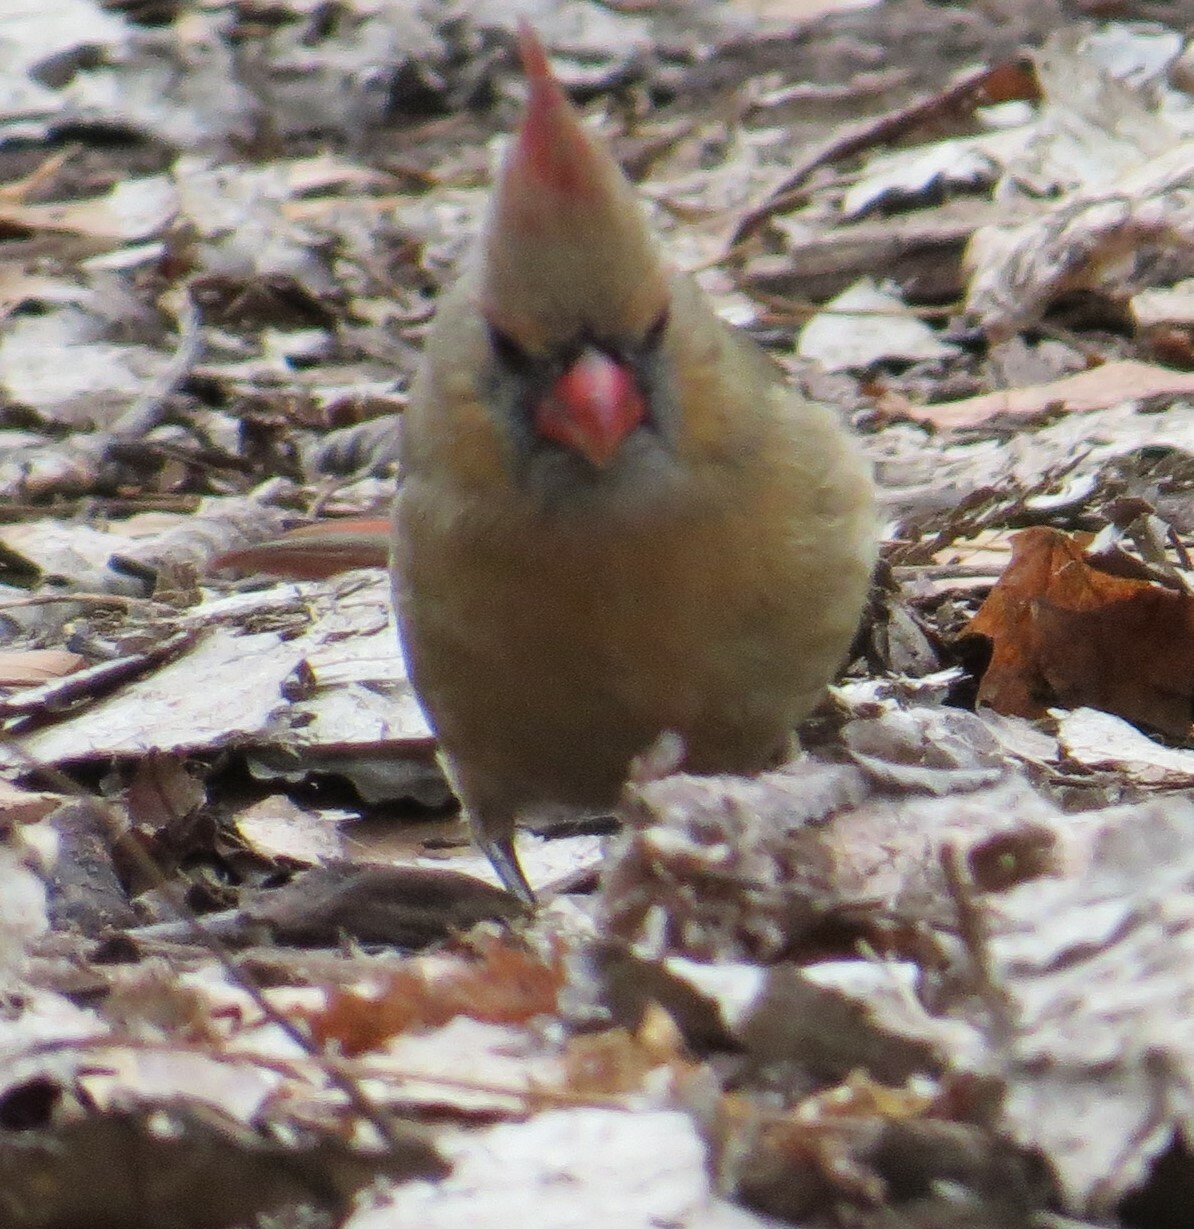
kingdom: Animalia
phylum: Chordata
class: Aves
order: Passeriformes
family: Cardinalidae
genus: Cardinalis
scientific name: Cardinalis cardinalis
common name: Northern cardinal
